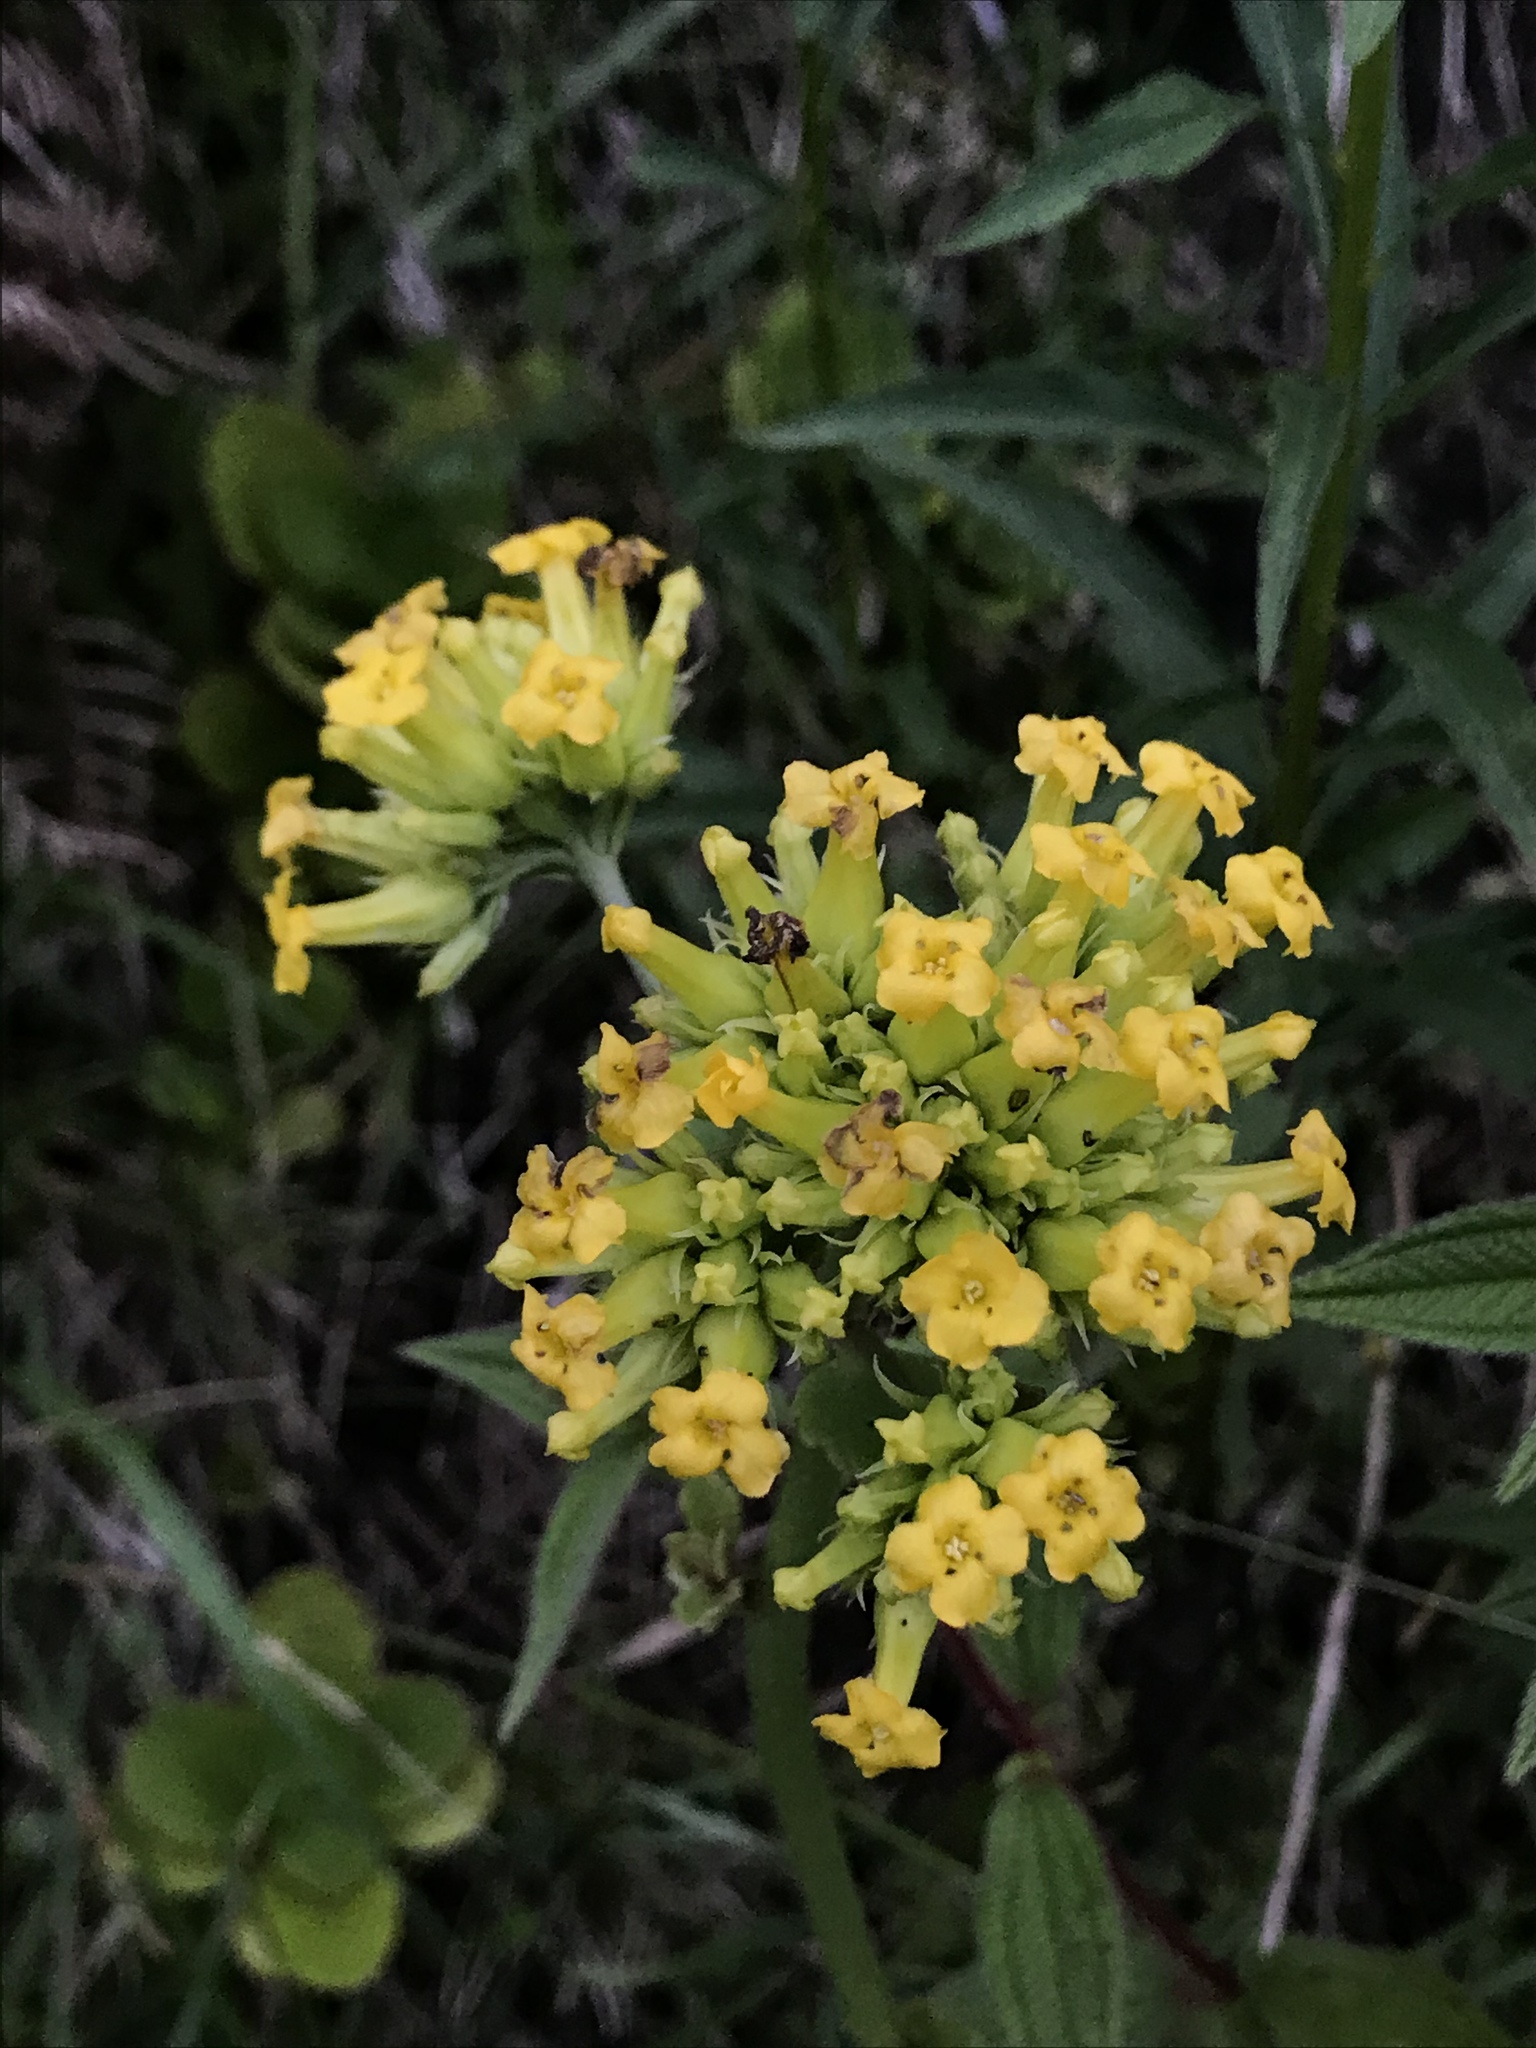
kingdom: Plantae
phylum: Tracheophyta
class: Magnoliopsida
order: Saxifragales
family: Crassulaceae
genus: Kalanchoe
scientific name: Kalanchoe densiflora
